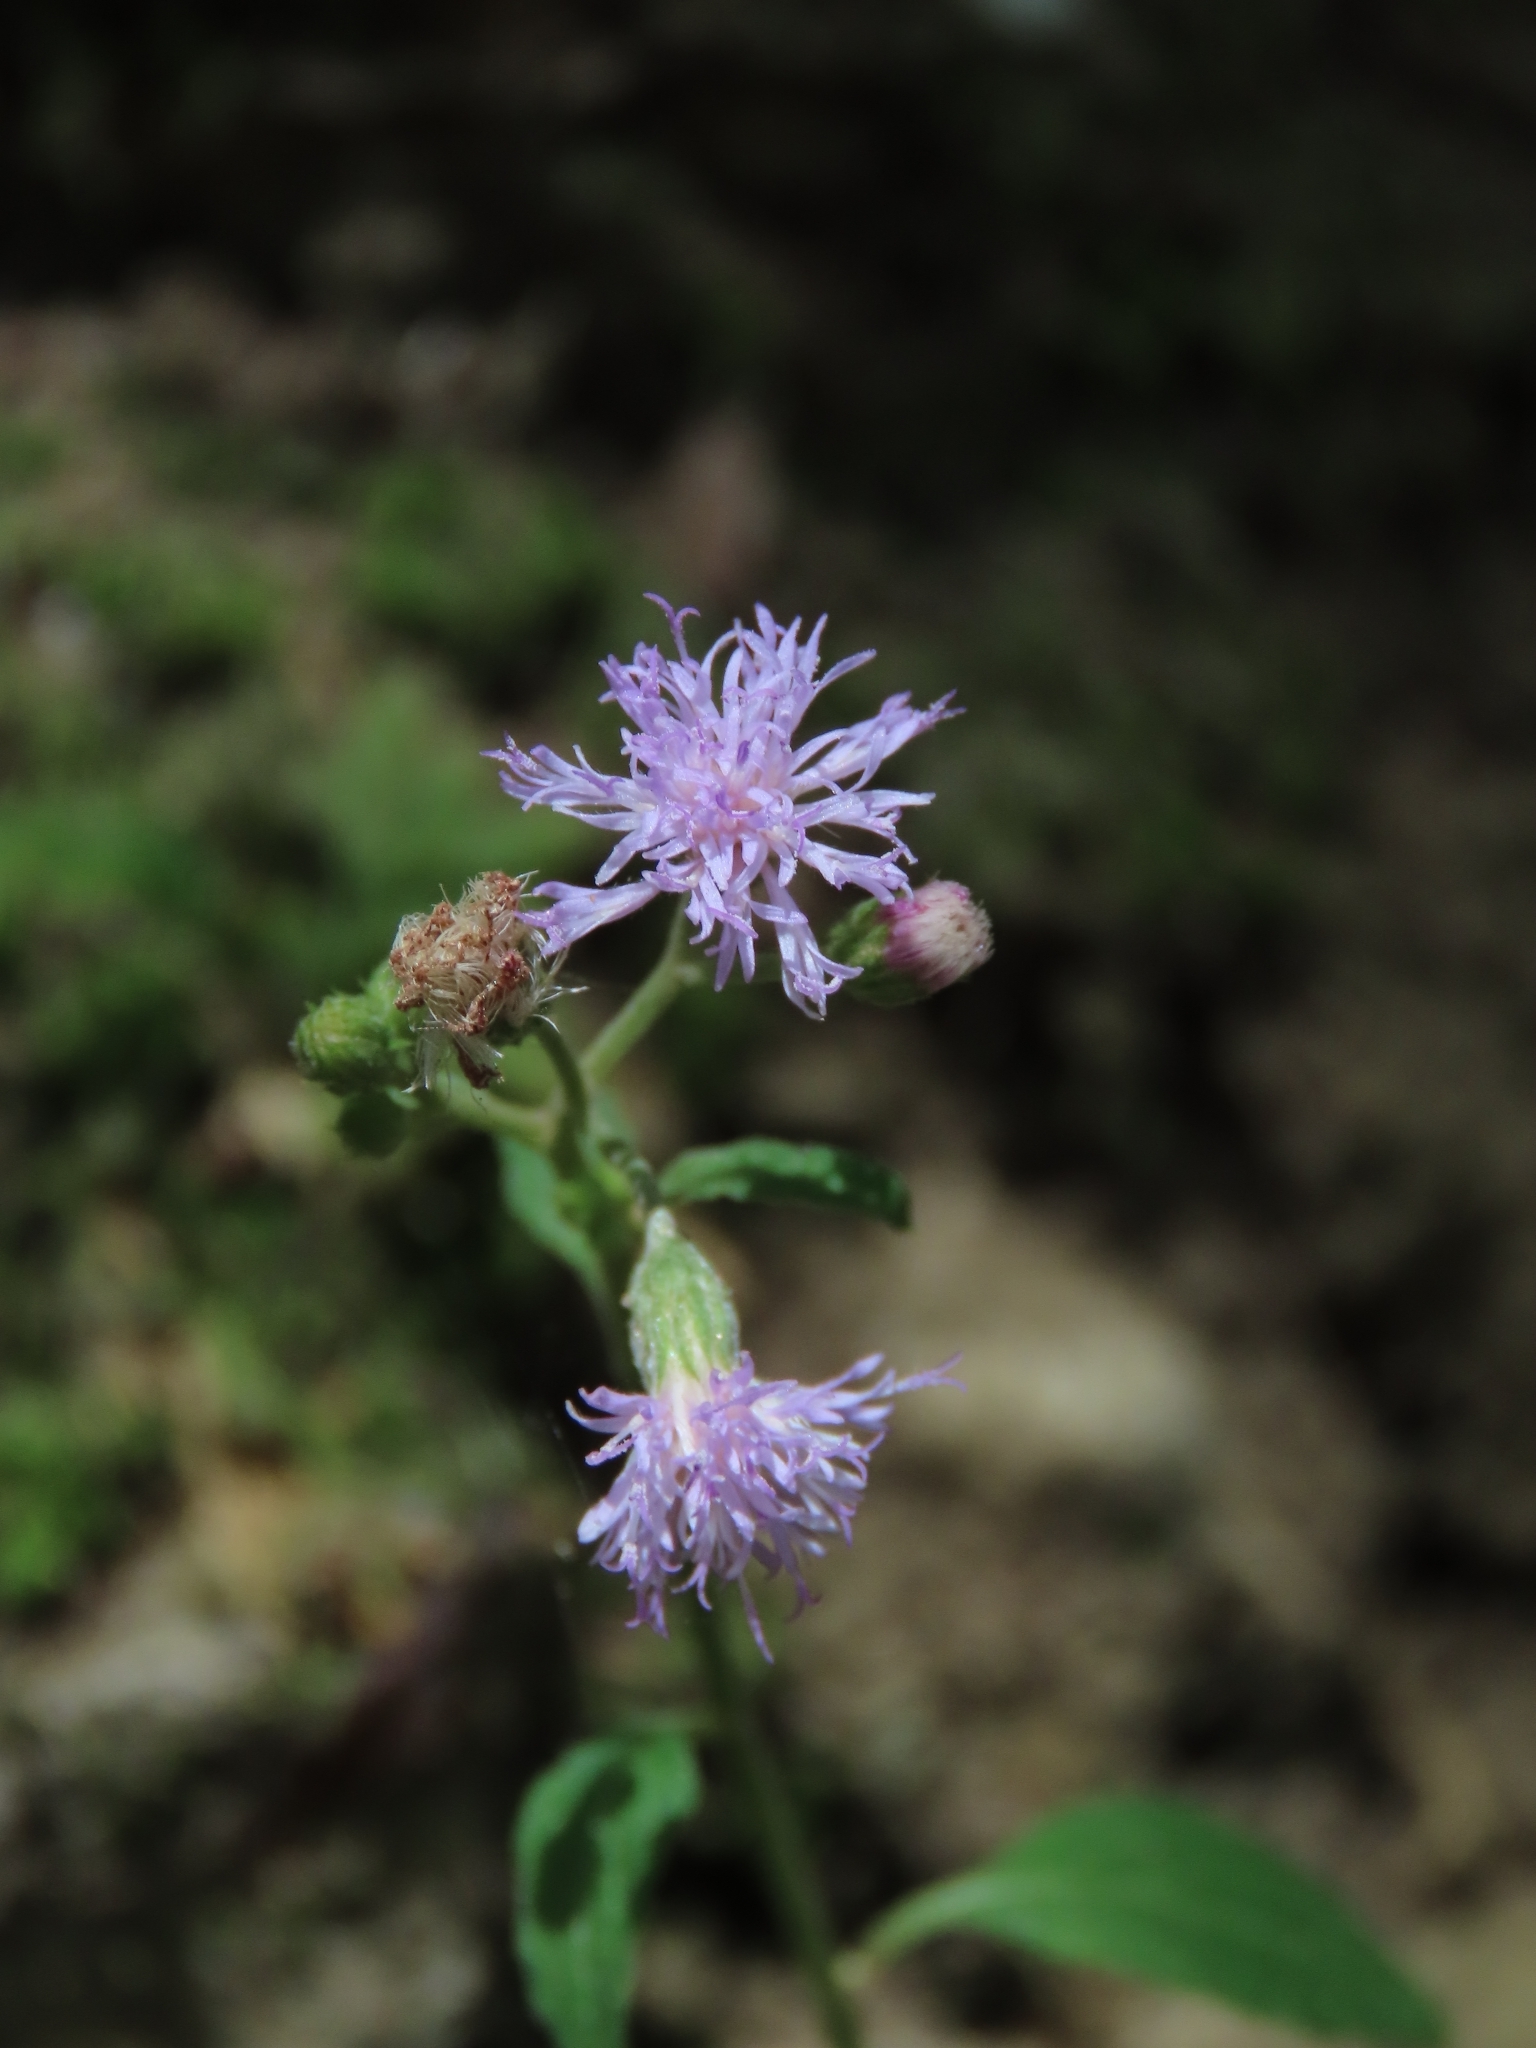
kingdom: Plantae
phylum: Tracheophyta
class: Magnoliopsida
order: Asterales
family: Asteraceae
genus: Cyanthillium
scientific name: Cyanthillium cinereum
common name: Little ironweed
